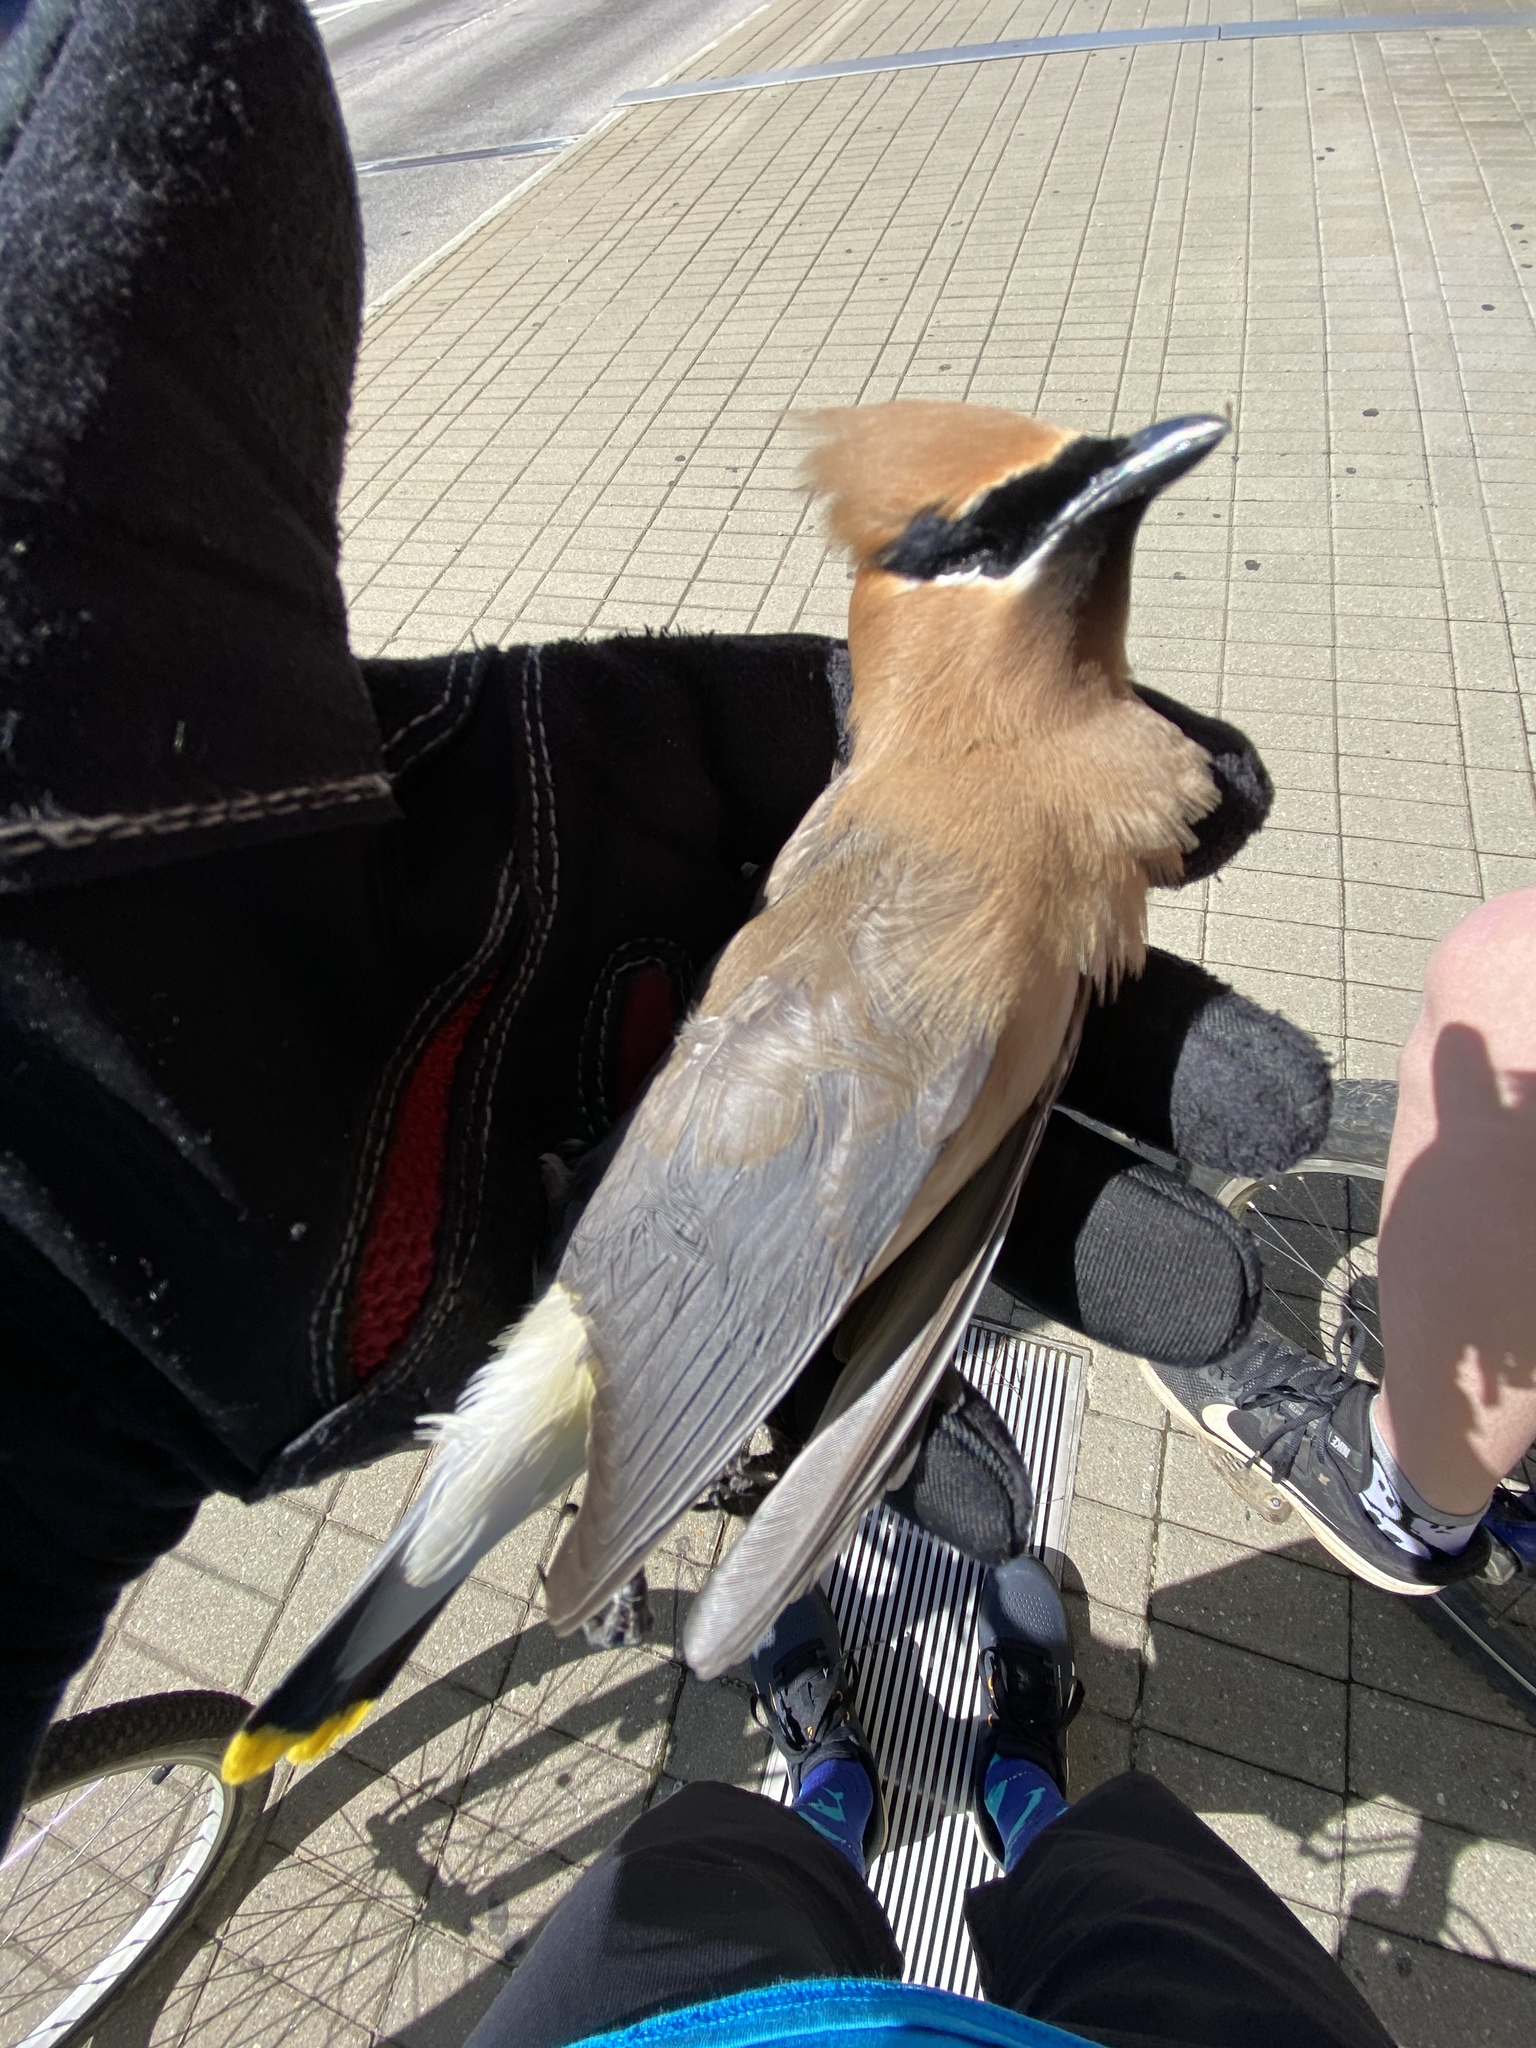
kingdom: Animalia
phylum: Chordata
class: Aves
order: Passeriformes
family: Bombycillidae
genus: Bombycilla
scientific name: Bombycilla cedrorum
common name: Cedar waxwing
